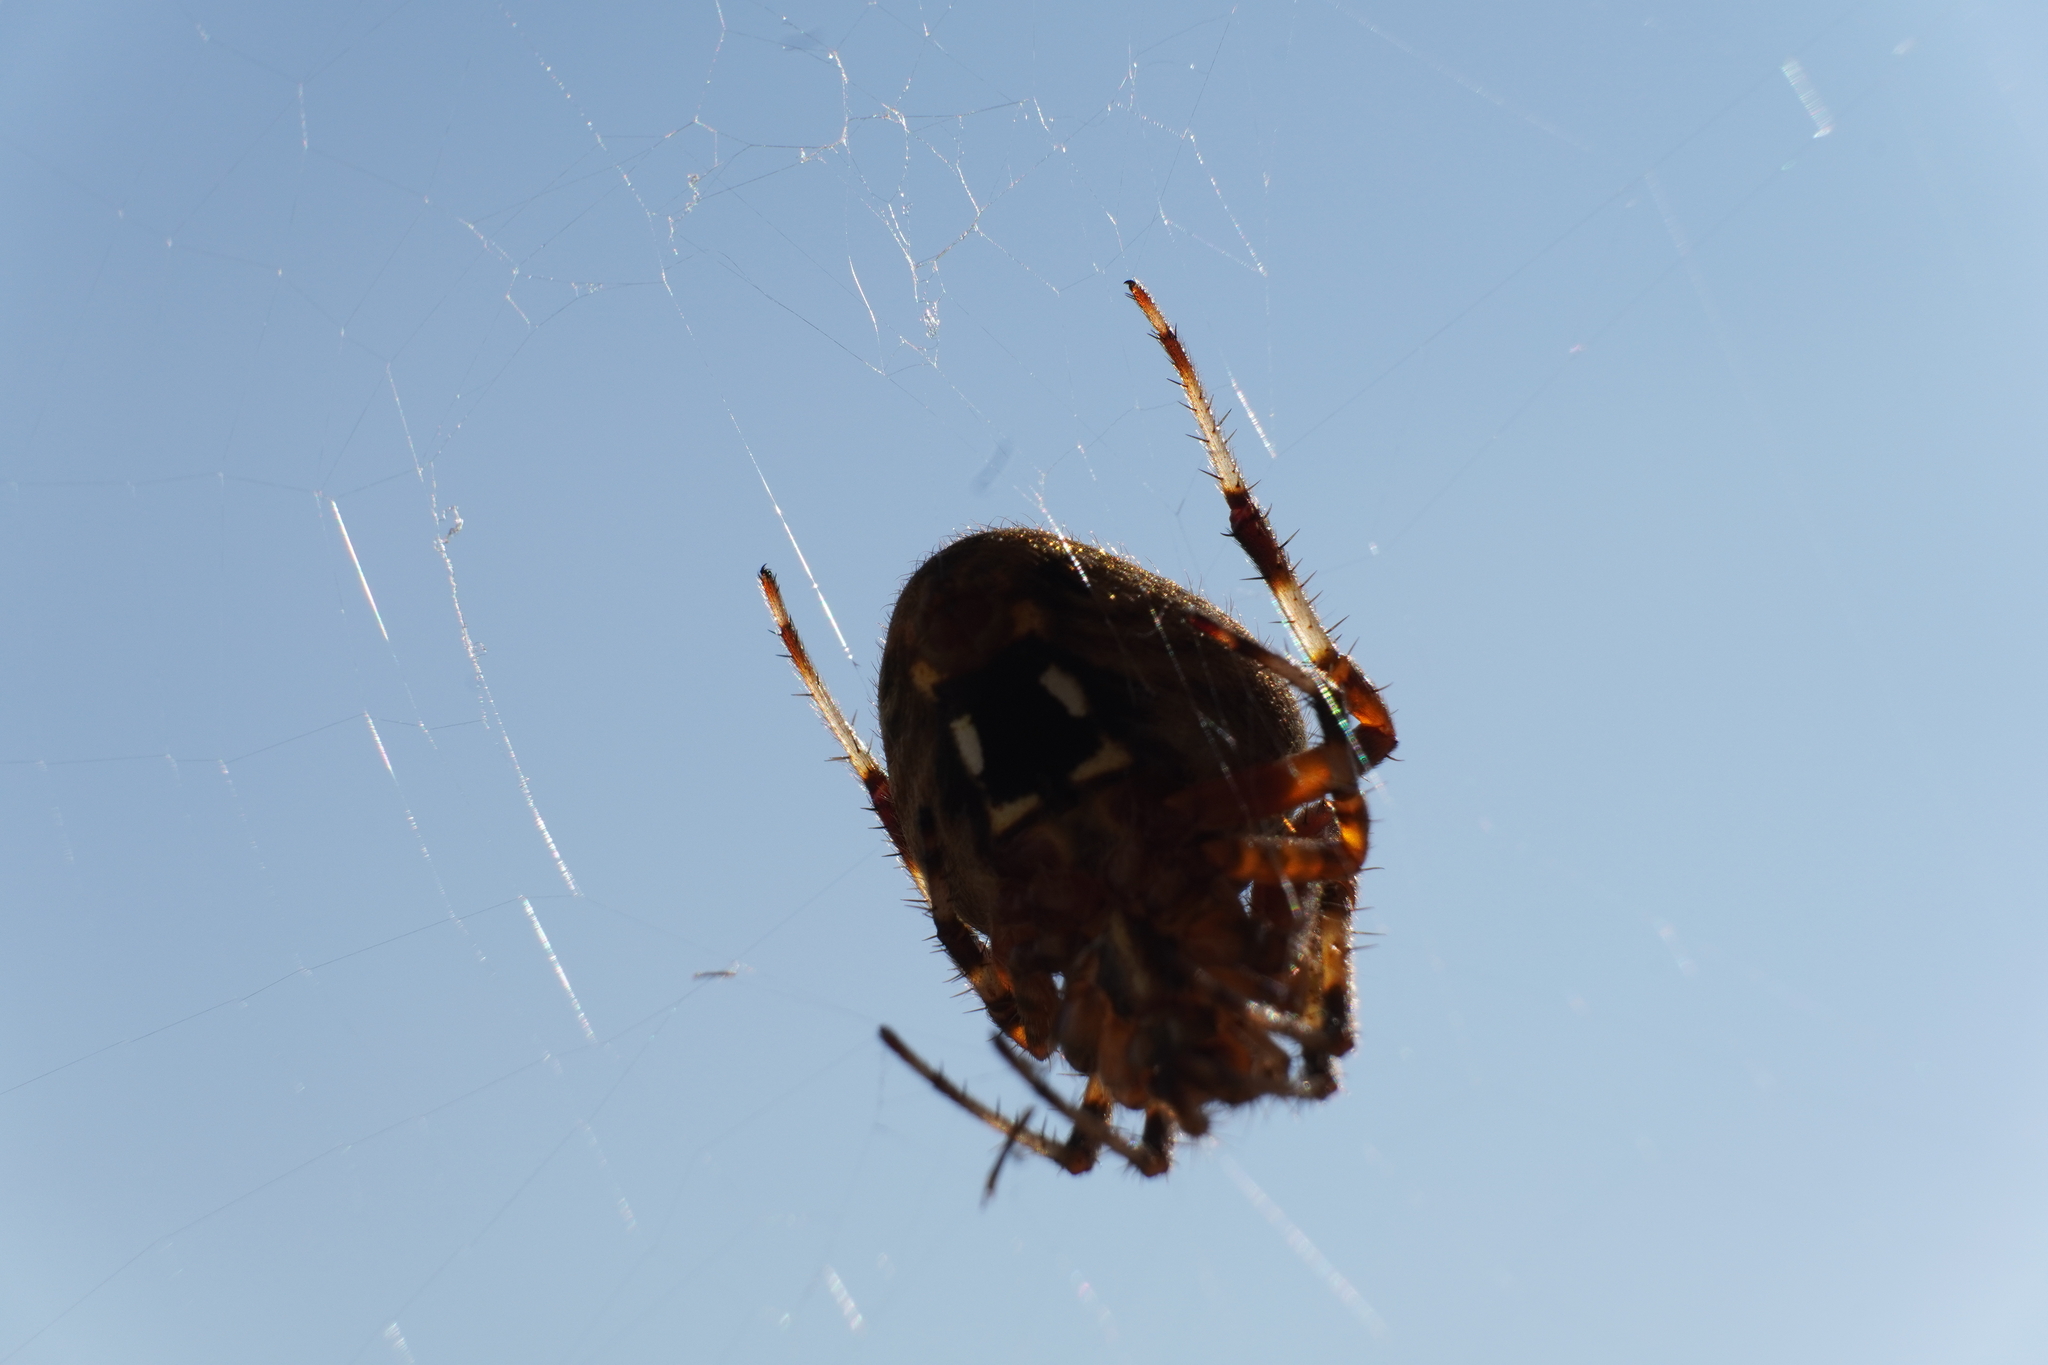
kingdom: Animalia
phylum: Arthropoda
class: Arachnida
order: Araneae
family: Araneidae
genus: Neoscona
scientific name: Neoscona crucifera
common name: Spotted orbweaver
